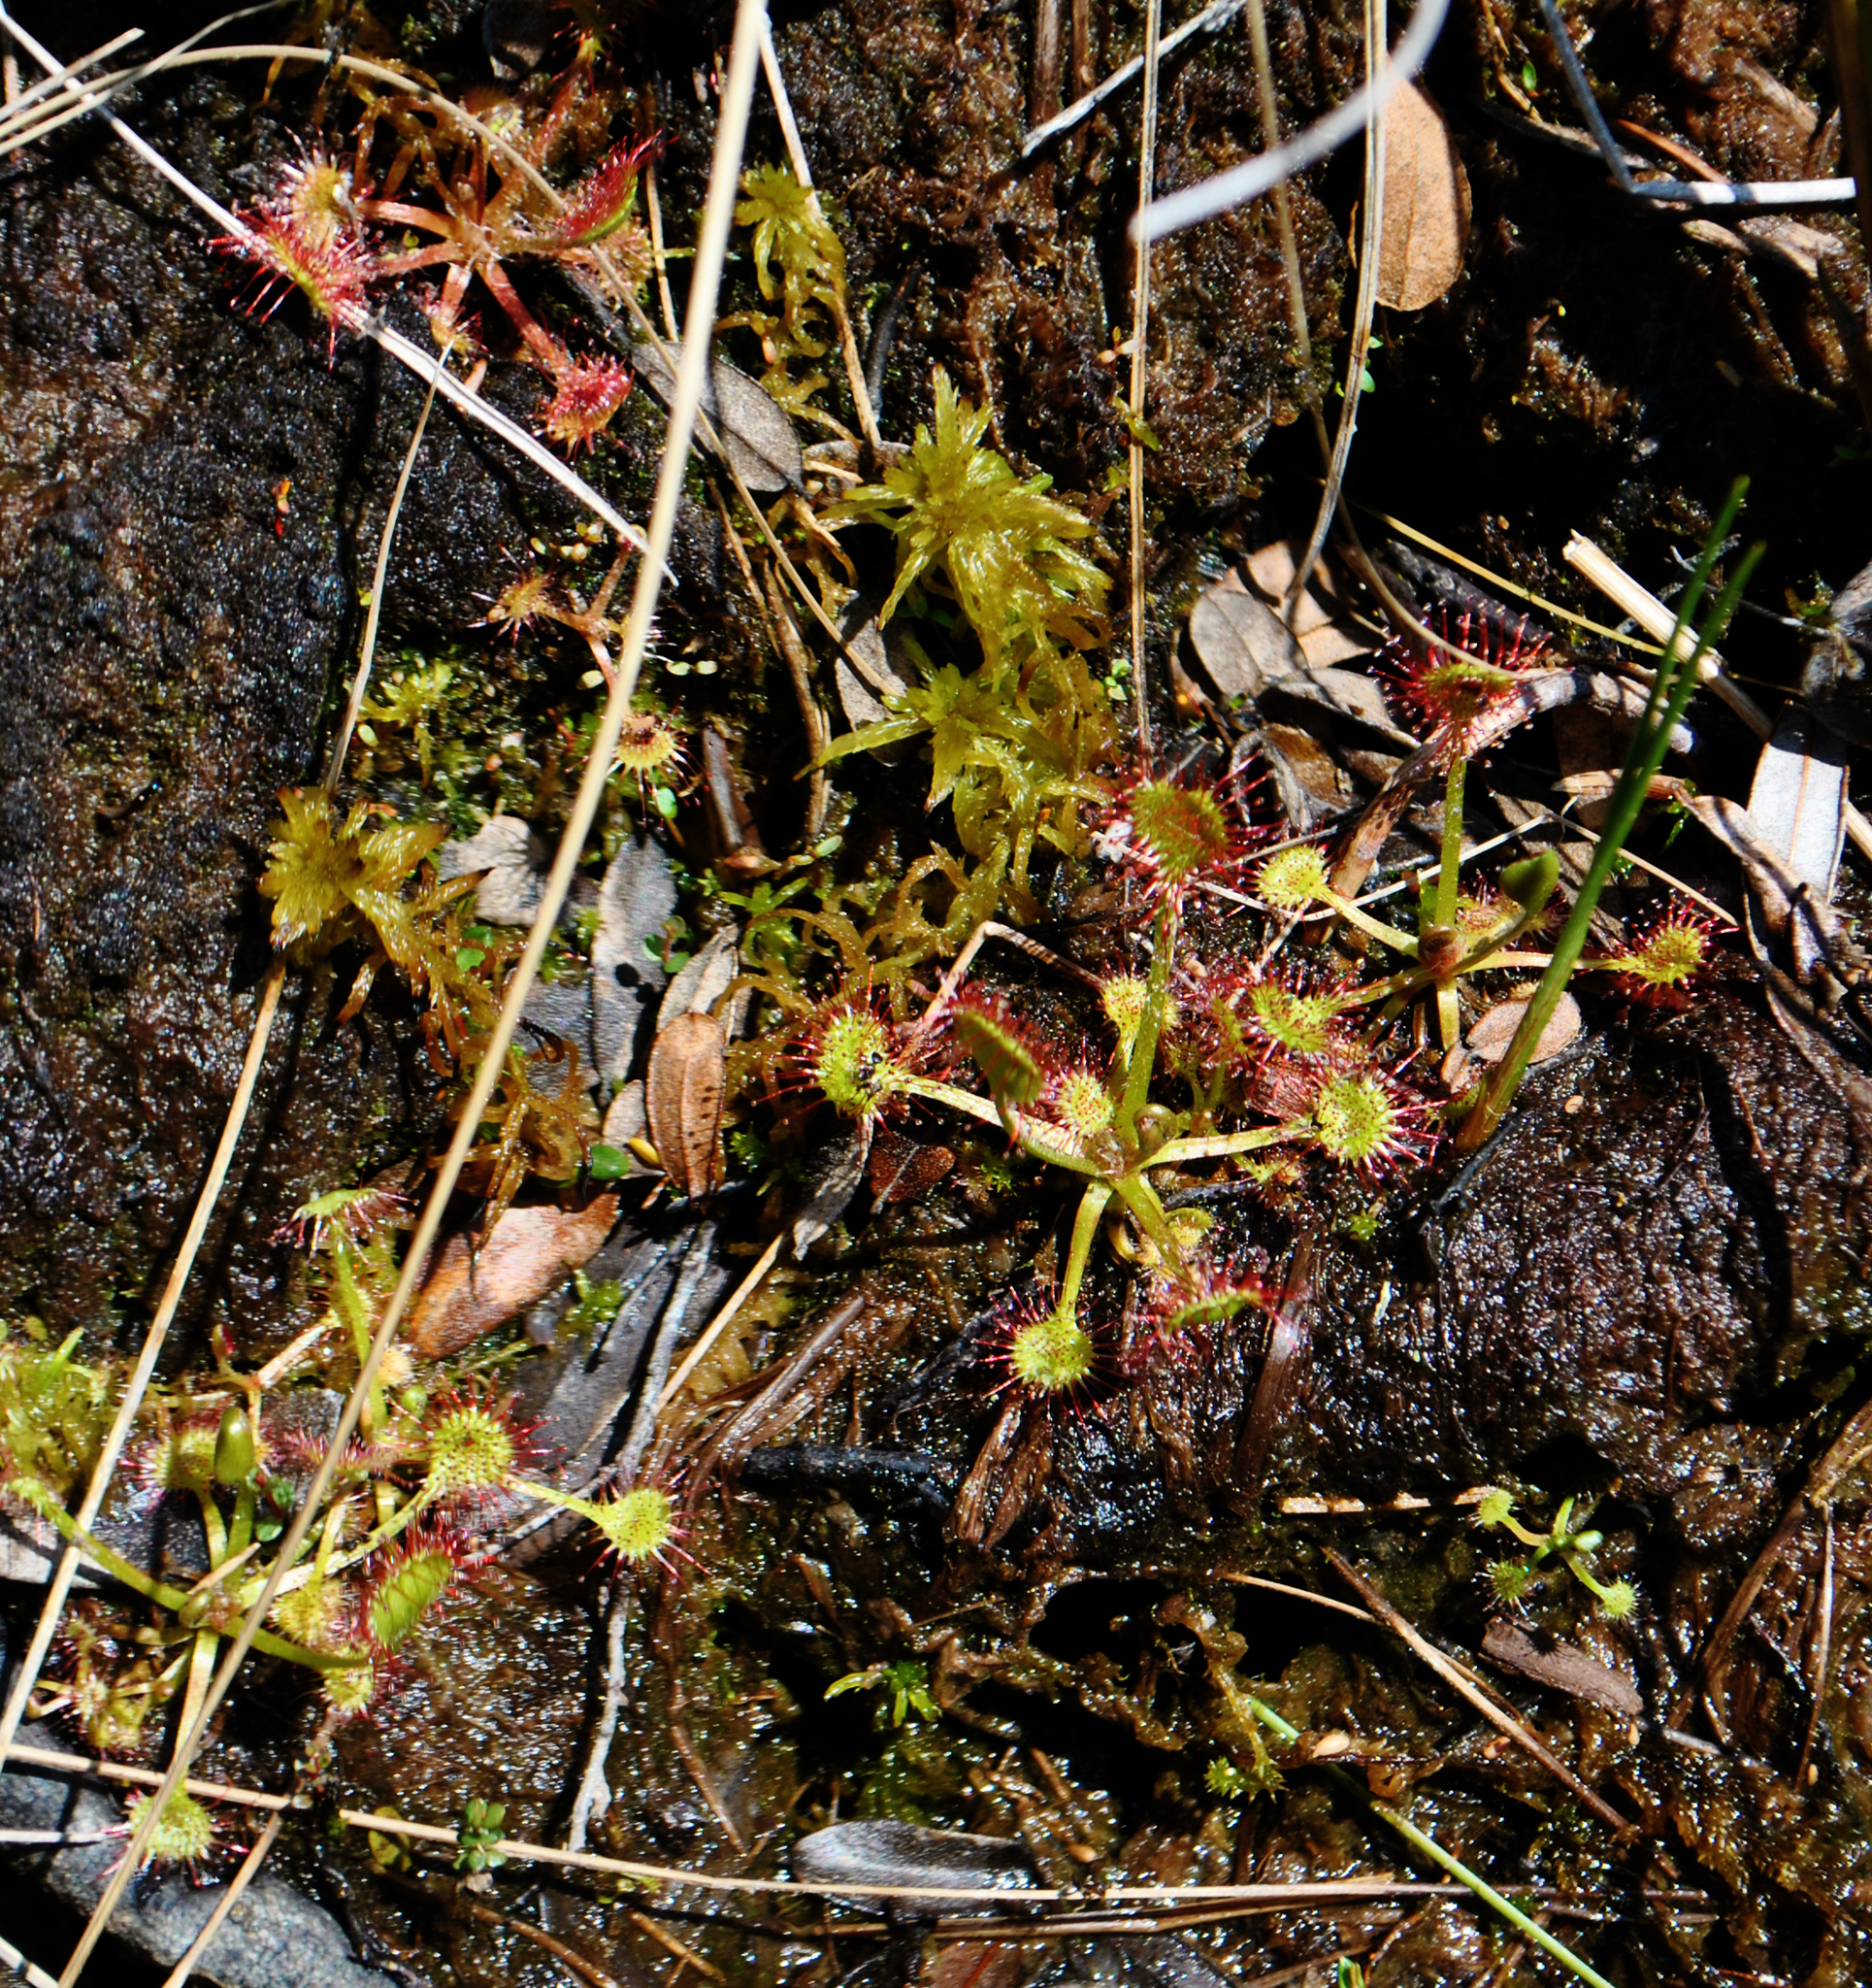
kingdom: Plantae
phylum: Tracheophyta
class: Magnoliopsida
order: Caryophyllales
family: Droseraceae
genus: Drosera
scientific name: Drosera rotundifolia
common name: Round-leaved sundew
